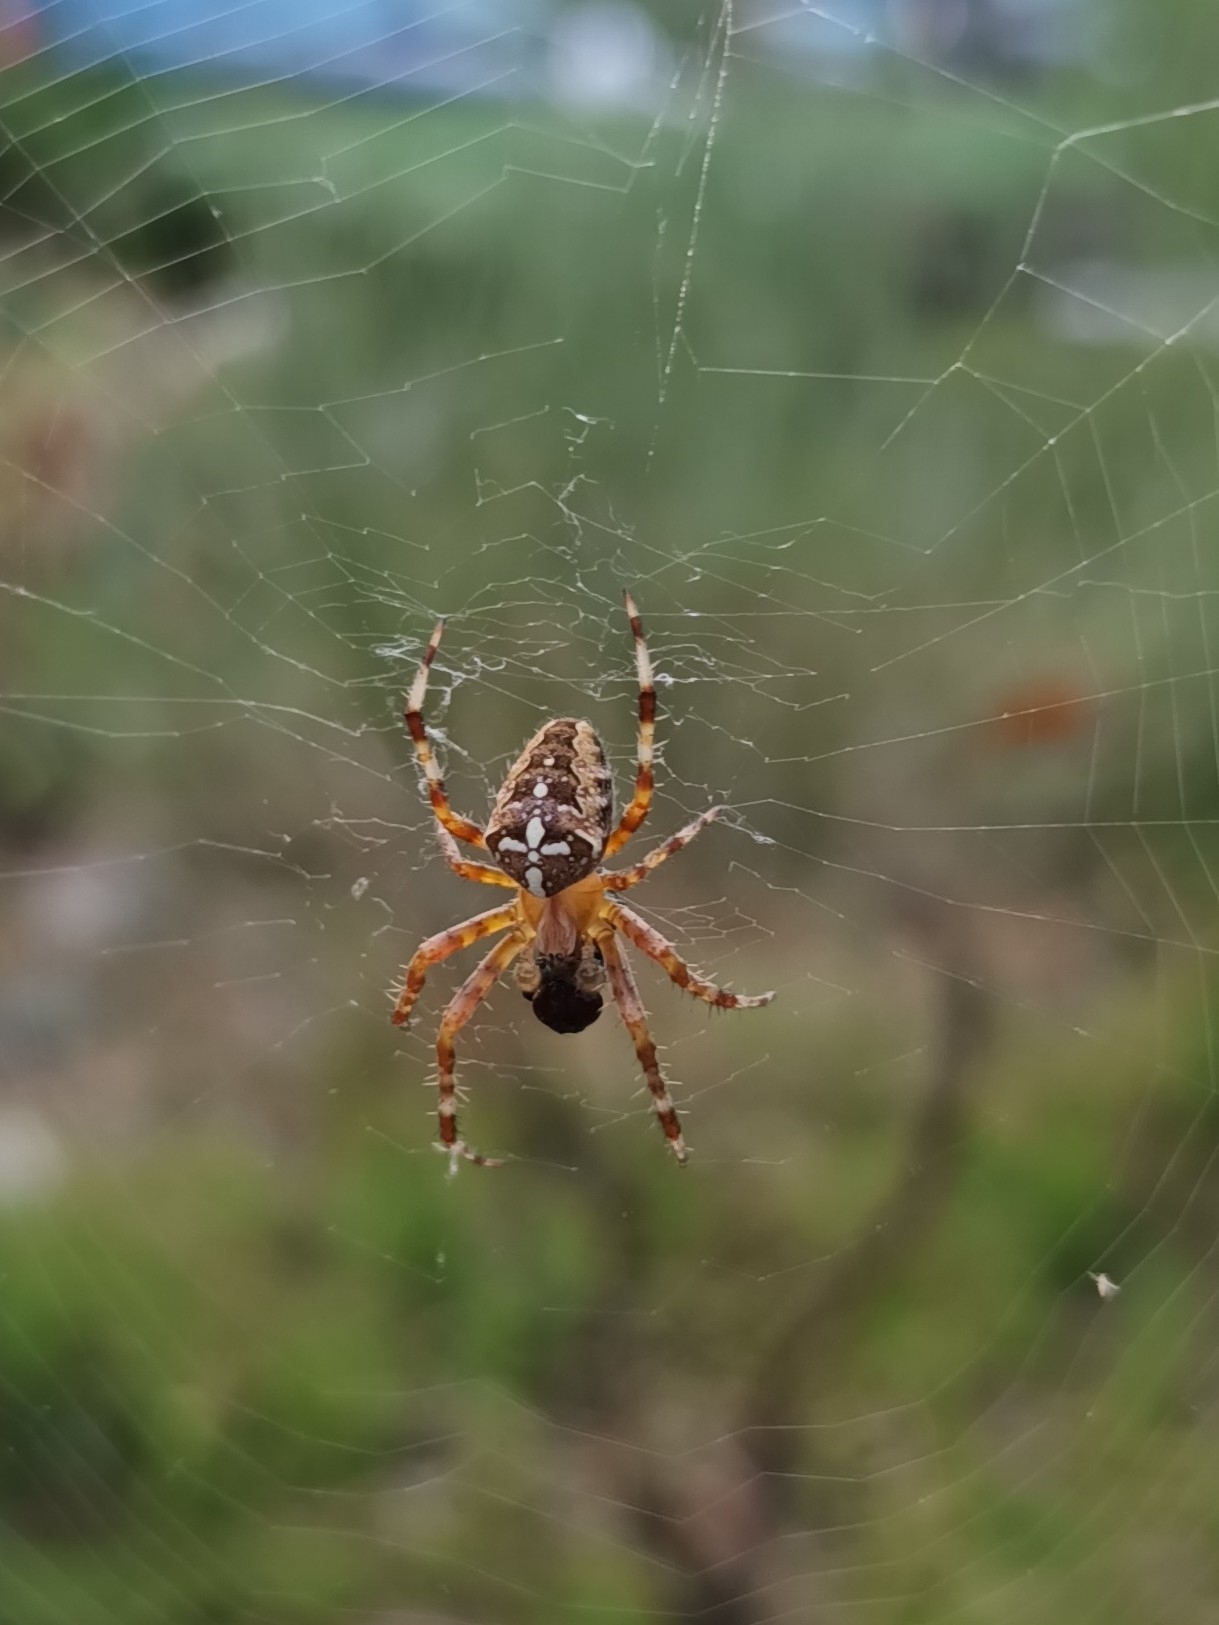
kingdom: Animalia
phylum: Arthropoda
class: Arachnida
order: Araneae
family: Araneidae
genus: Araneus
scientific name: Araneus diadematus
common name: Cross orbweaver
